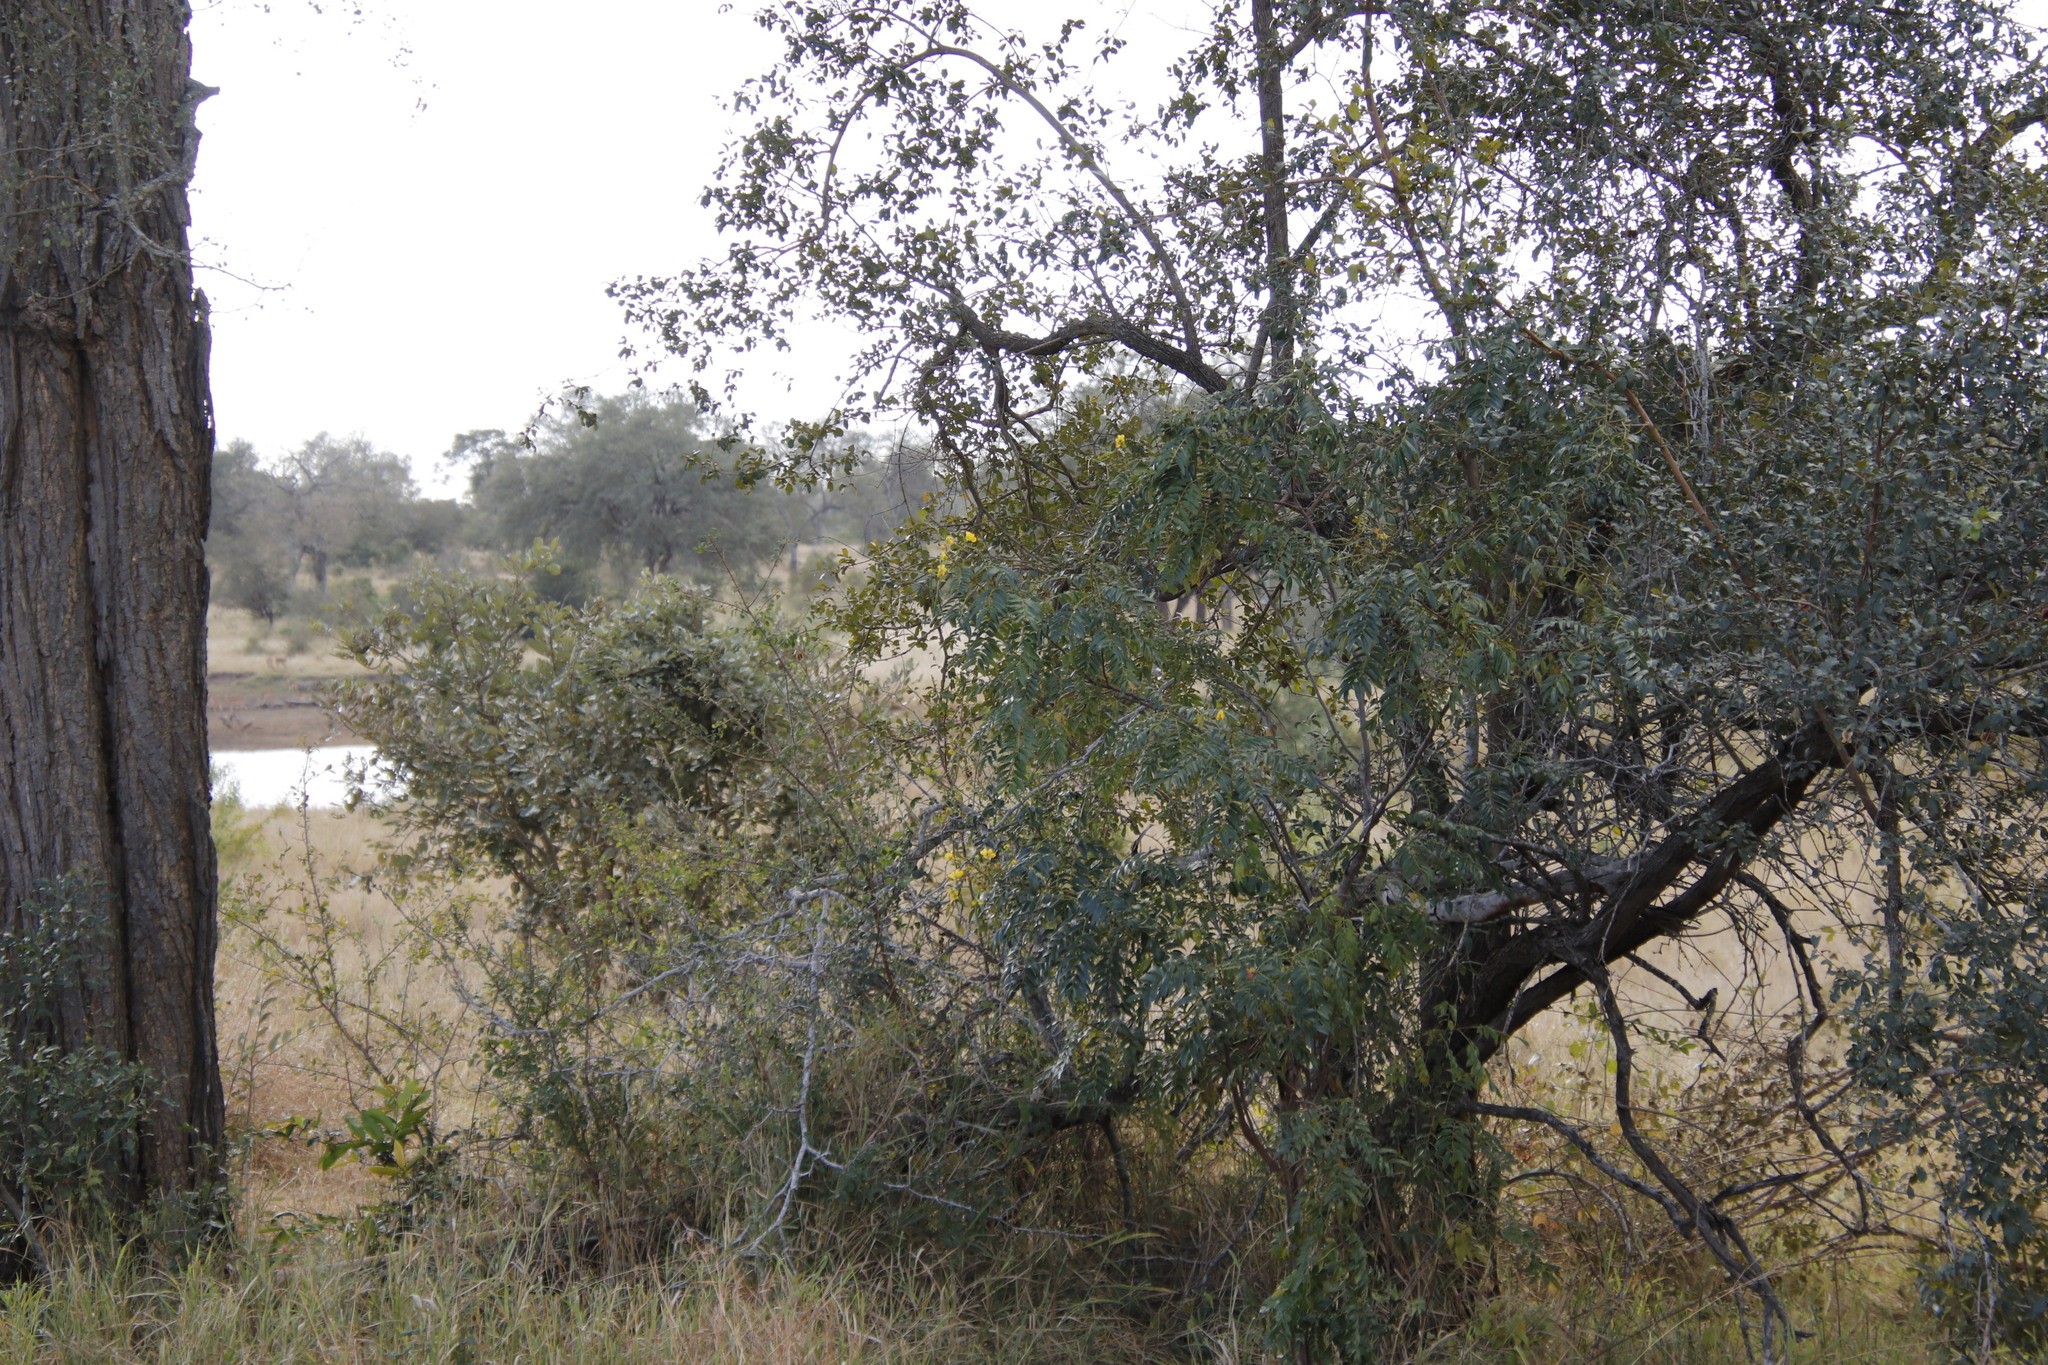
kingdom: Plantae
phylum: Tracheophyta
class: Magnoliopsida
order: Fabales
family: Fabaceae
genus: Senna
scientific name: Senna petersiana
